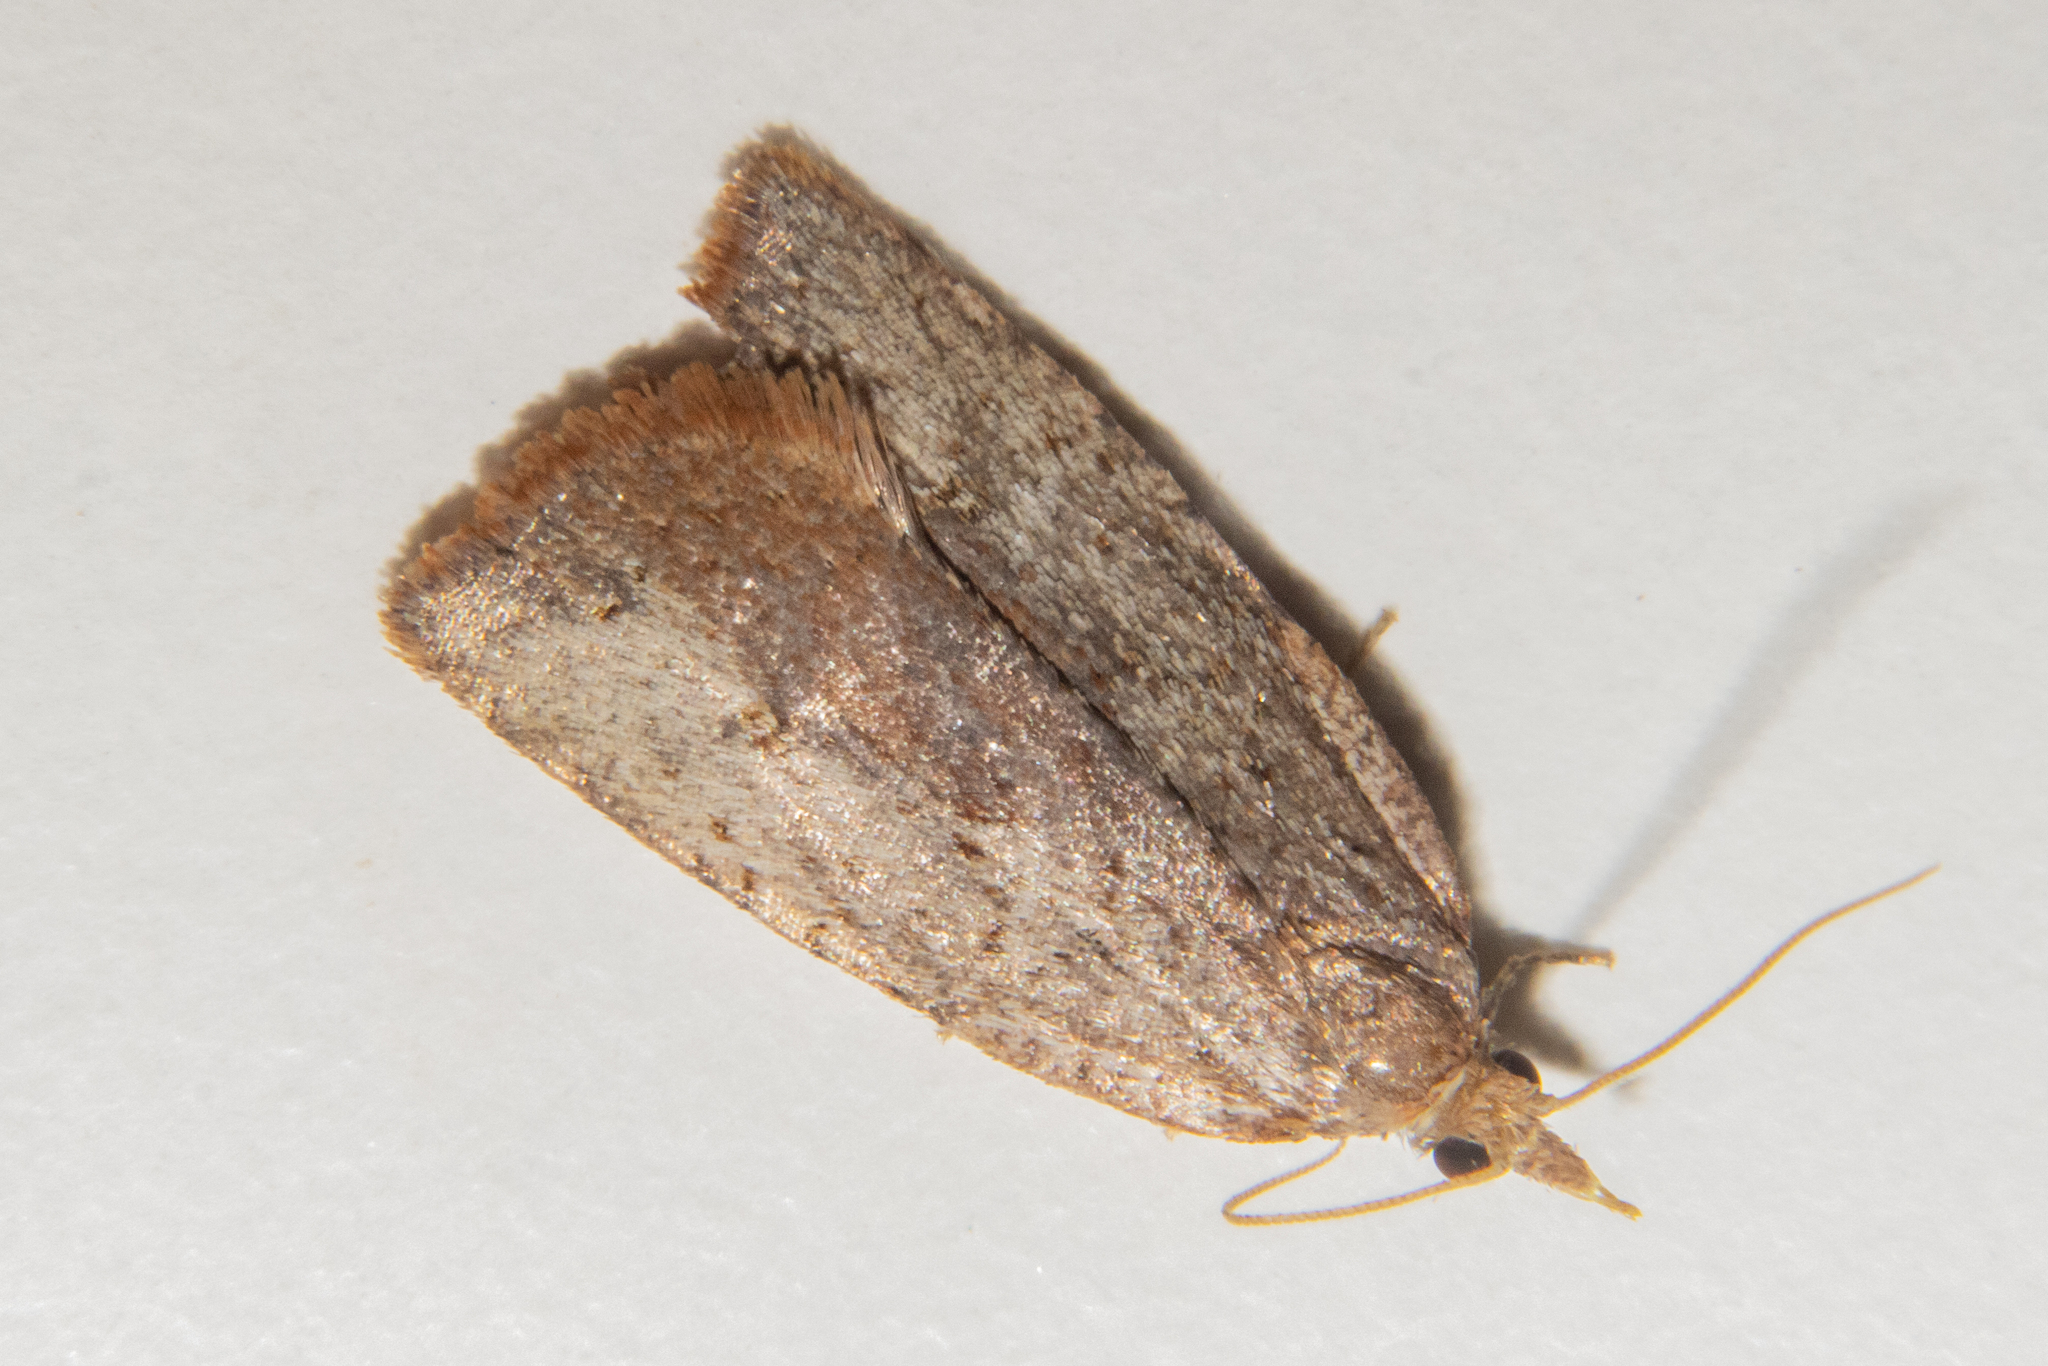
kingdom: Animalia
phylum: Arthropoda
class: Insecta
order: Lepidoptera
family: Tortricidae
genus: Planotortrix
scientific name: Planotortrix excessana
